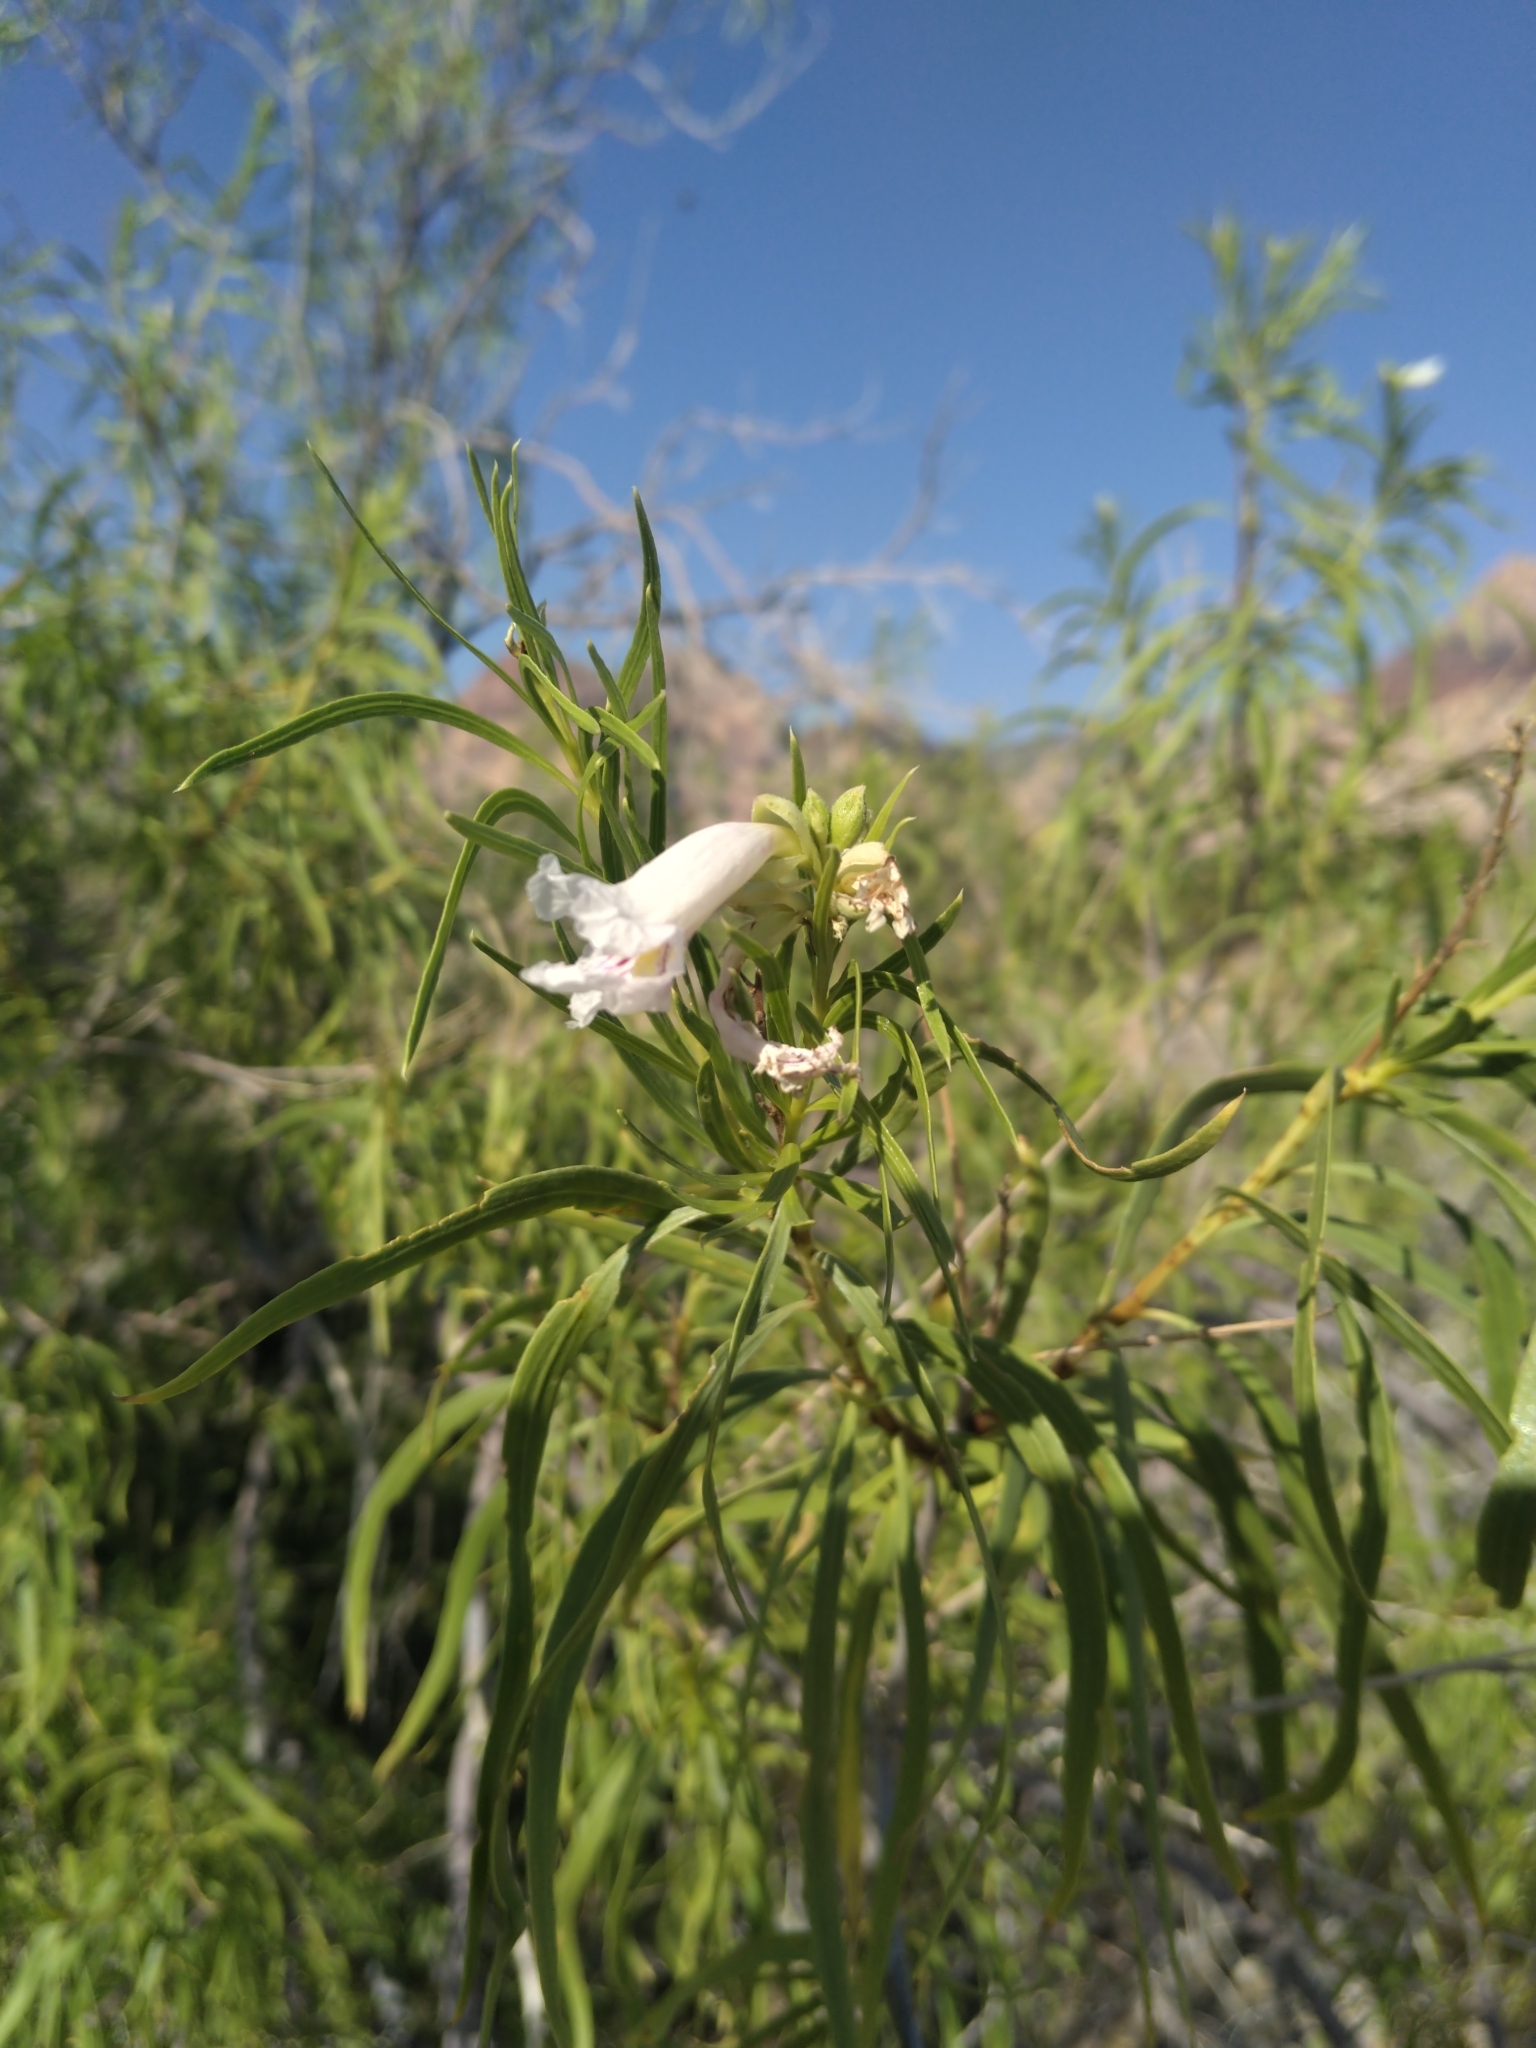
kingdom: Plantae
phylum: Tracheophyta
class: Magnoliopsida
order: Lamiales
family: Bignoniaceae
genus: Chilopsis
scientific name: Chilopsis linearis
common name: Desert-willow
